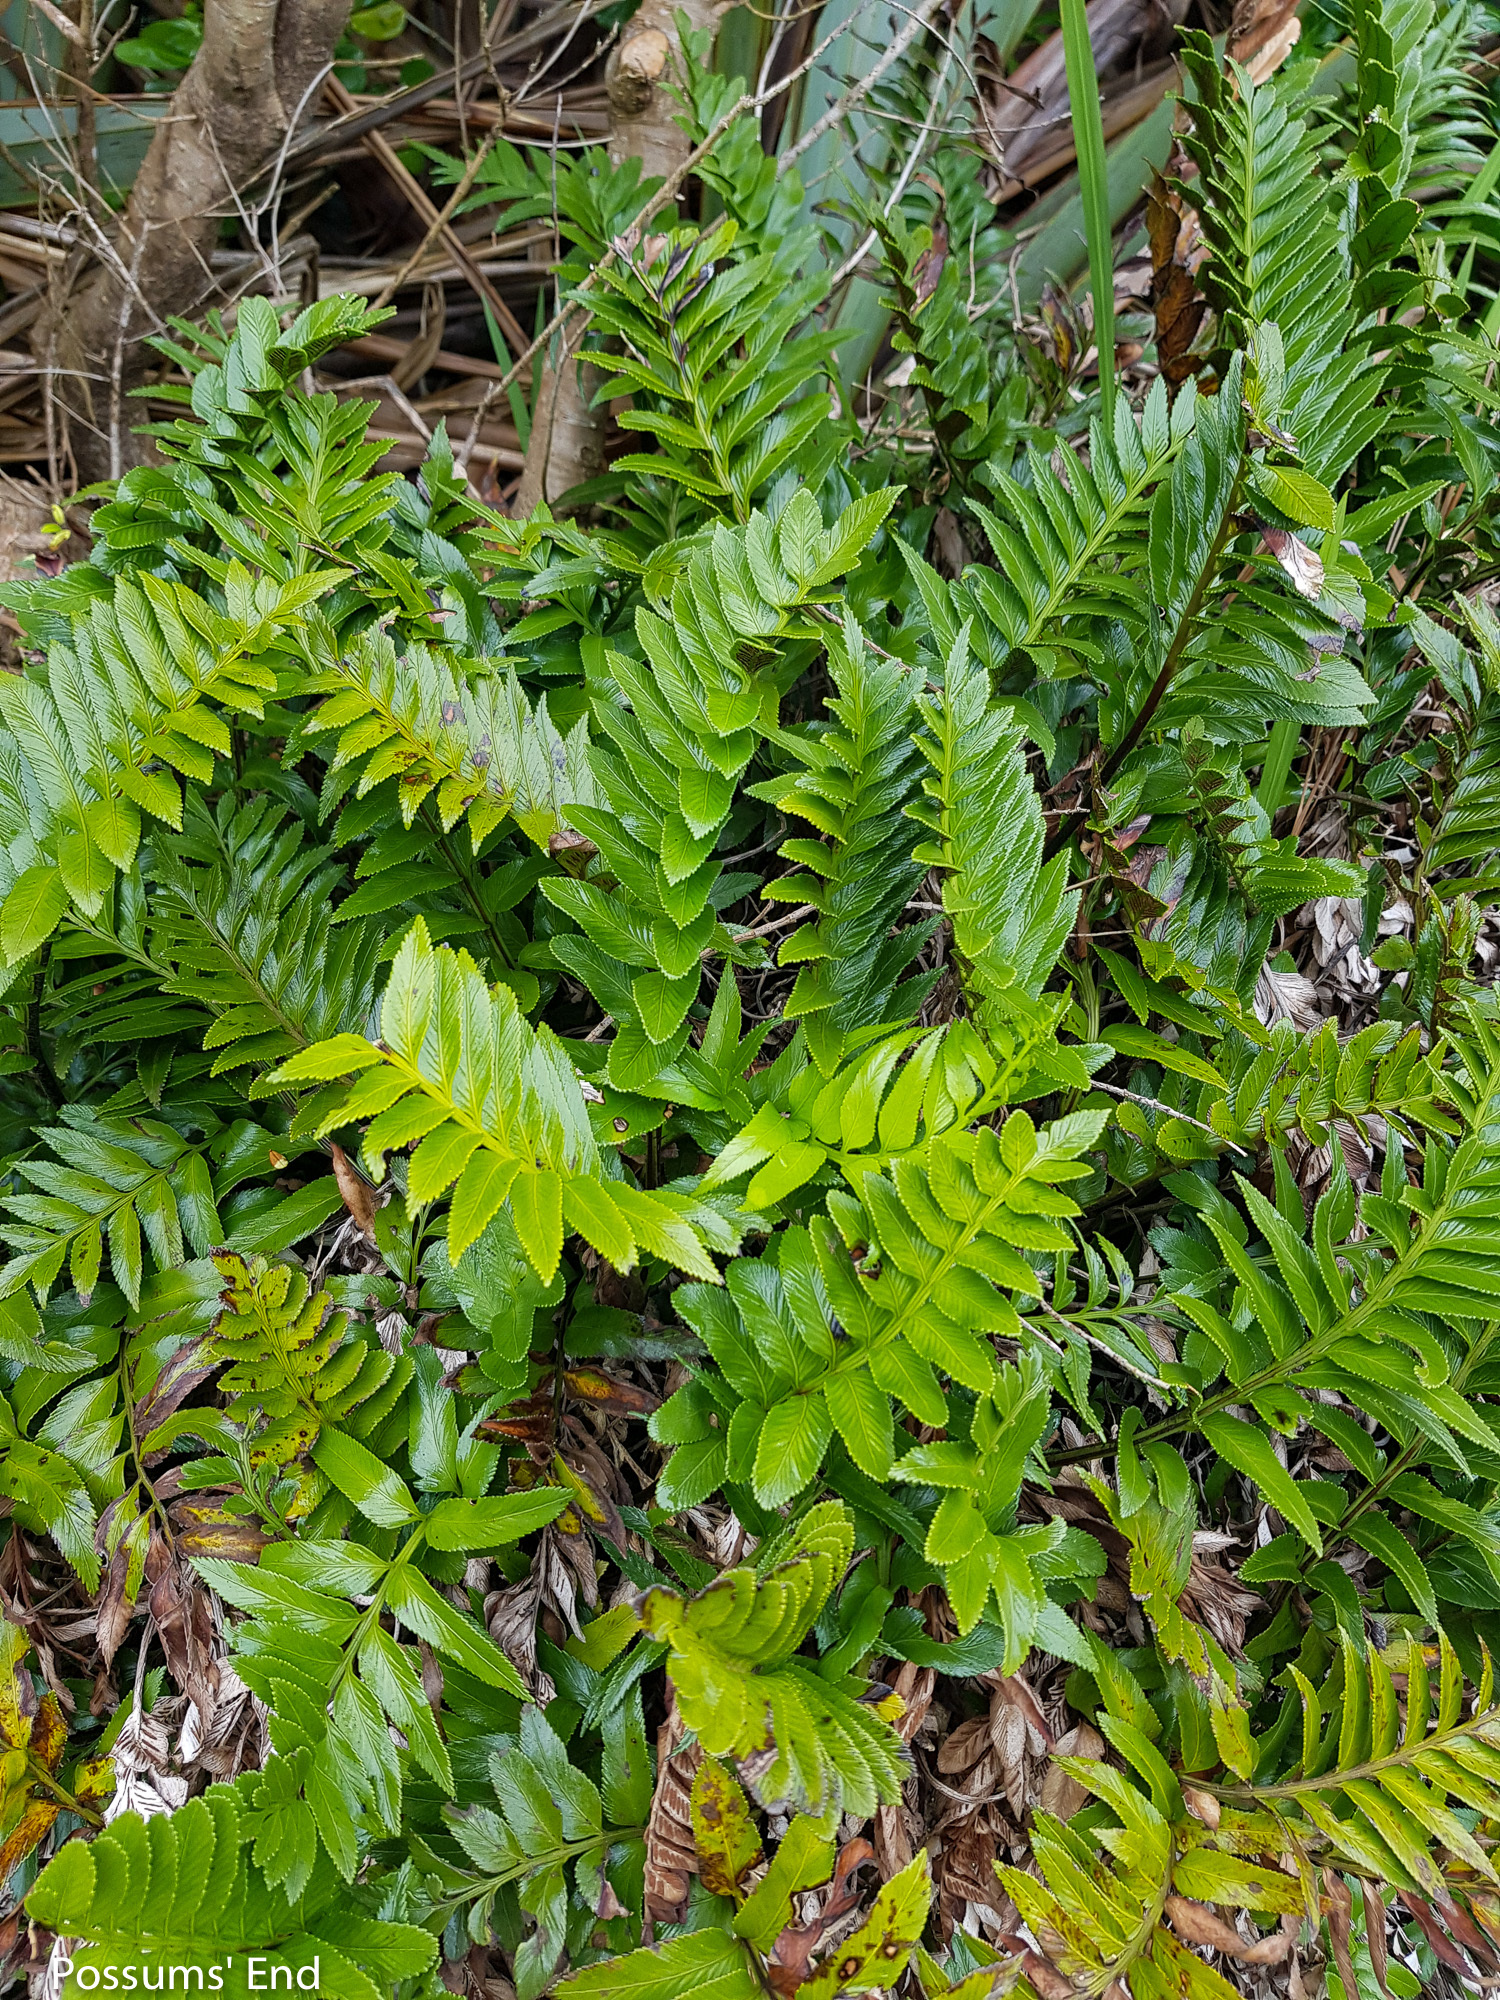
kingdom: Plantae
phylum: Tracheophyta
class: Polypodiopsida
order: Polypodiales
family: Aspleniaceae
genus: Asplenium
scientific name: Asplenium obtusatum
